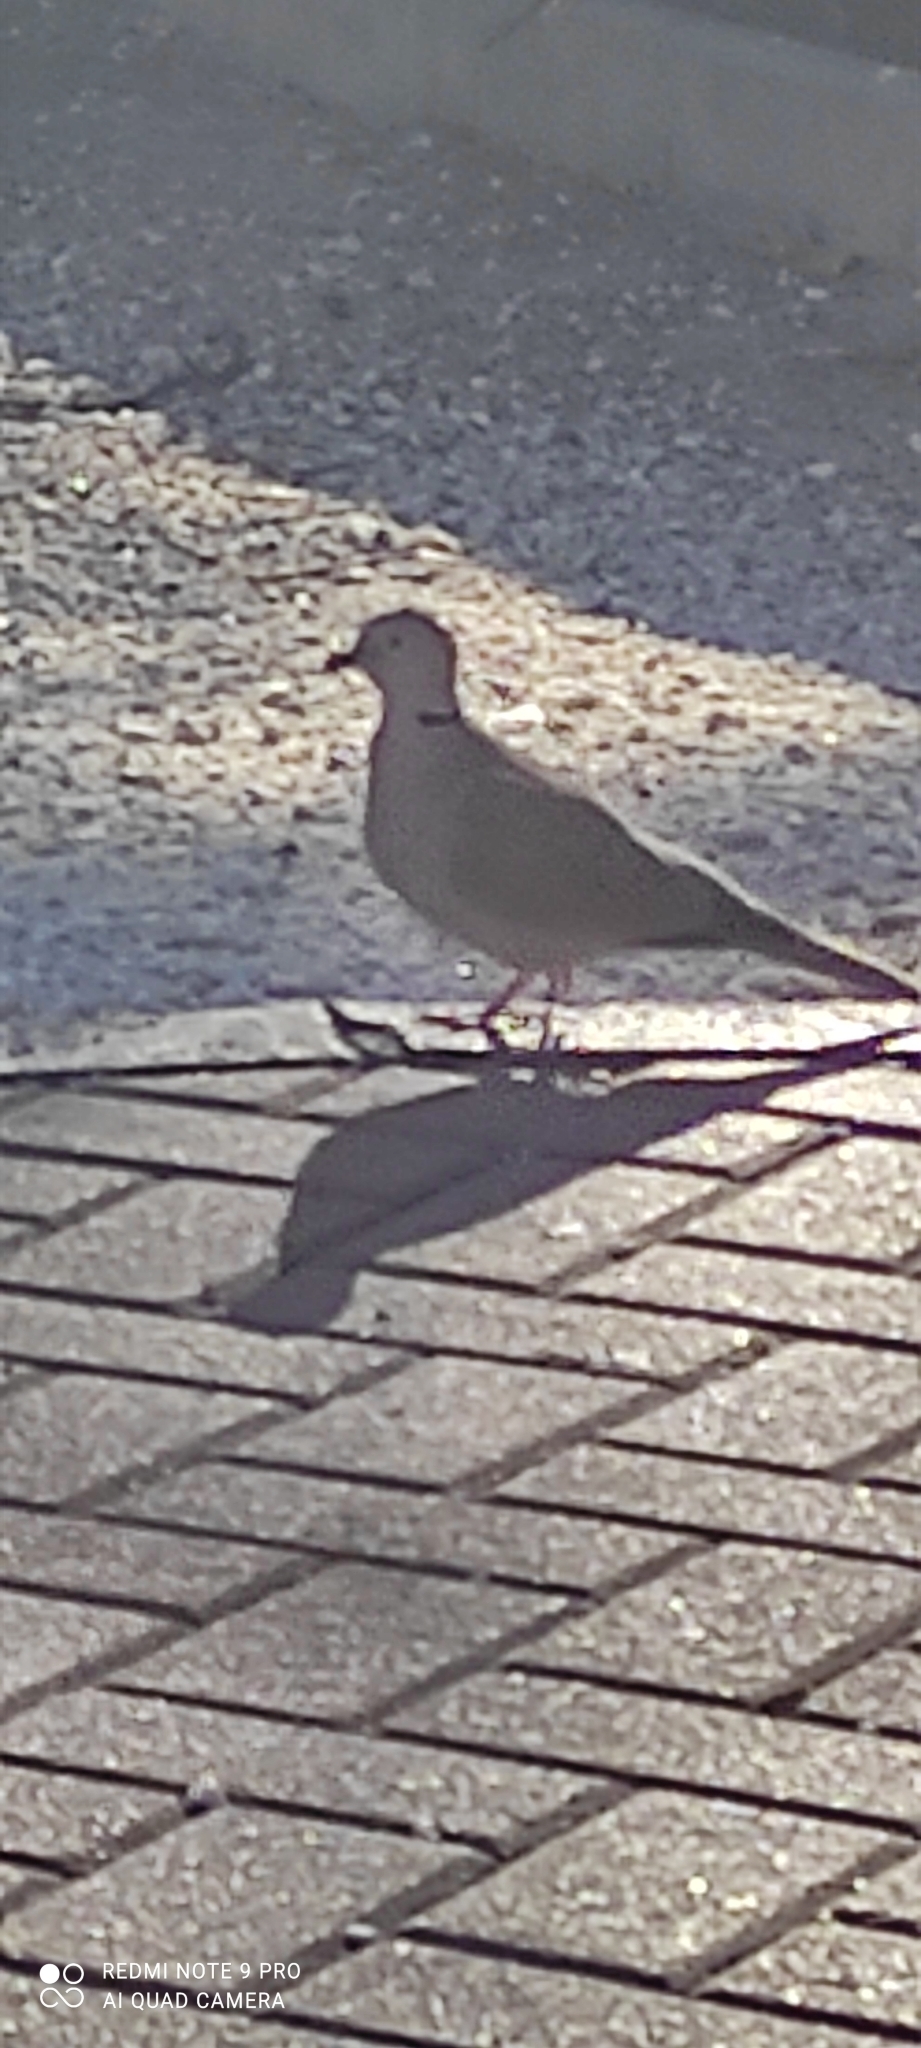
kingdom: Animalia
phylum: Chordata
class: Aves
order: Columbiformes
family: Columbidae
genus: Streptopelia
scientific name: Streptopelia decaocto
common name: Eurasian collared dove
